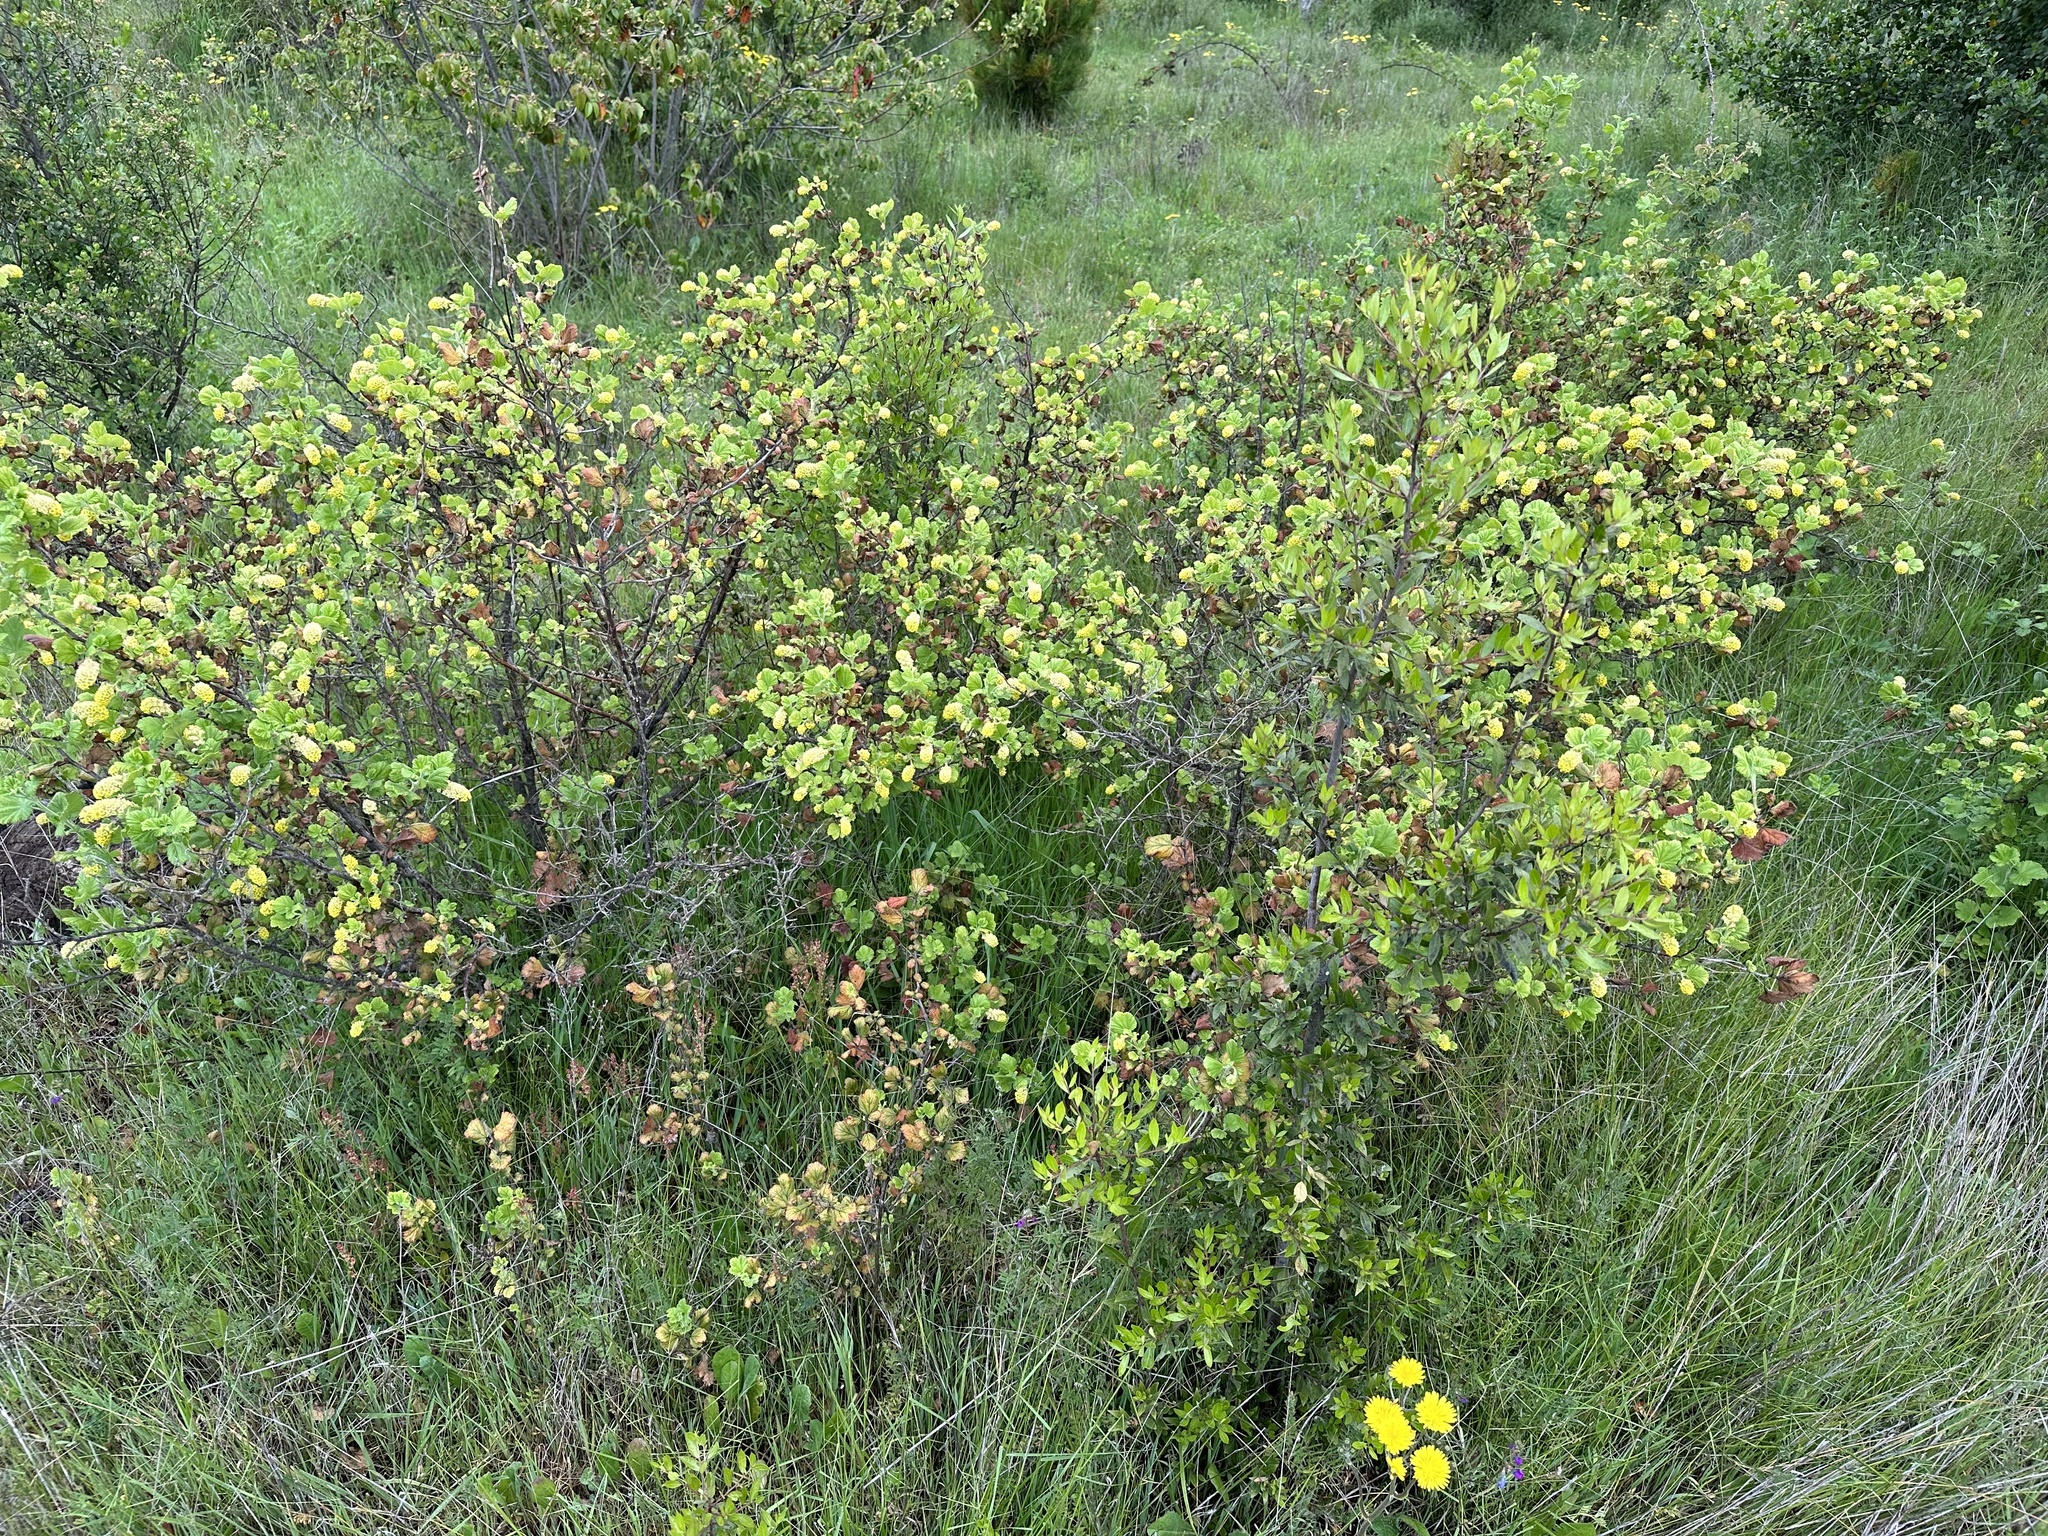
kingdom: Plantae
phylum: Tracheophyta
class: Magnoliopsida
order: Saxifragales
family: Grossulariaceae
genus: Ribes
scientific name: Ribes trilobum
